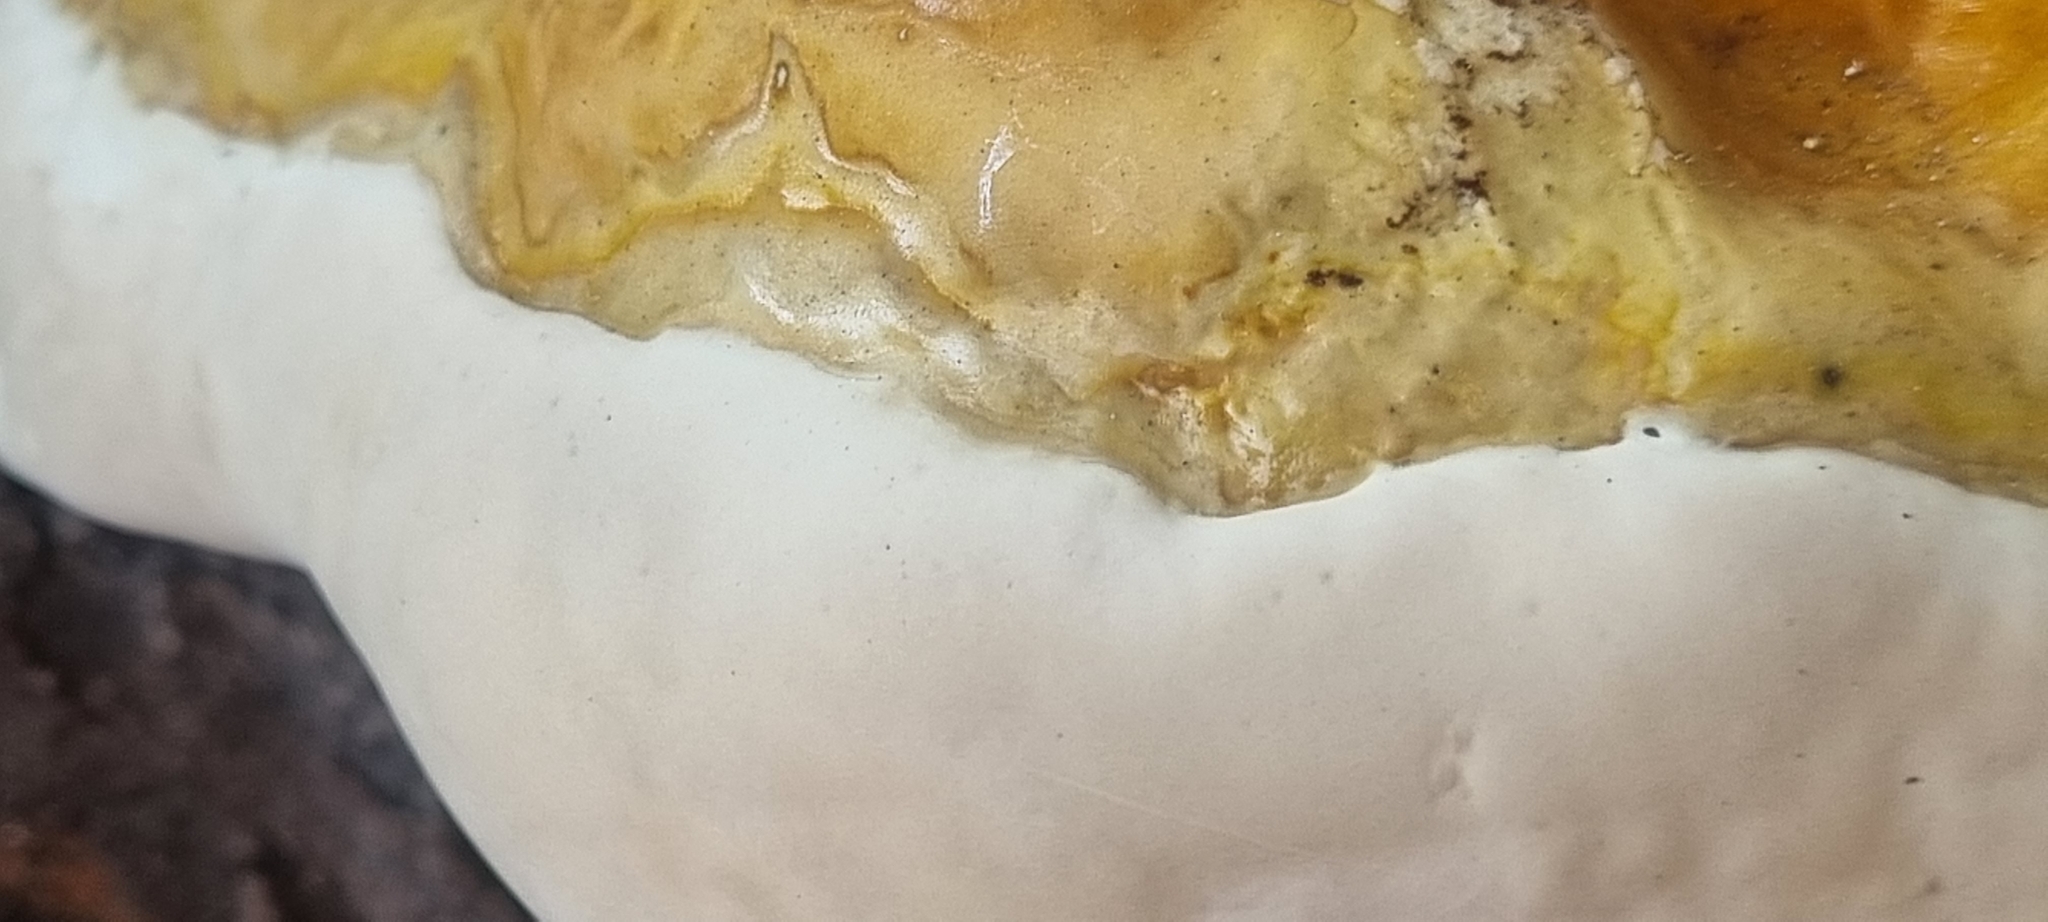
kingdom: Fungi
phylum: Basidiomycota
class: Agaricomycetes
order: Polyporales
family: Polyporaceae
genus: Ganoderma
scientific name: Ganoderma polychromum
